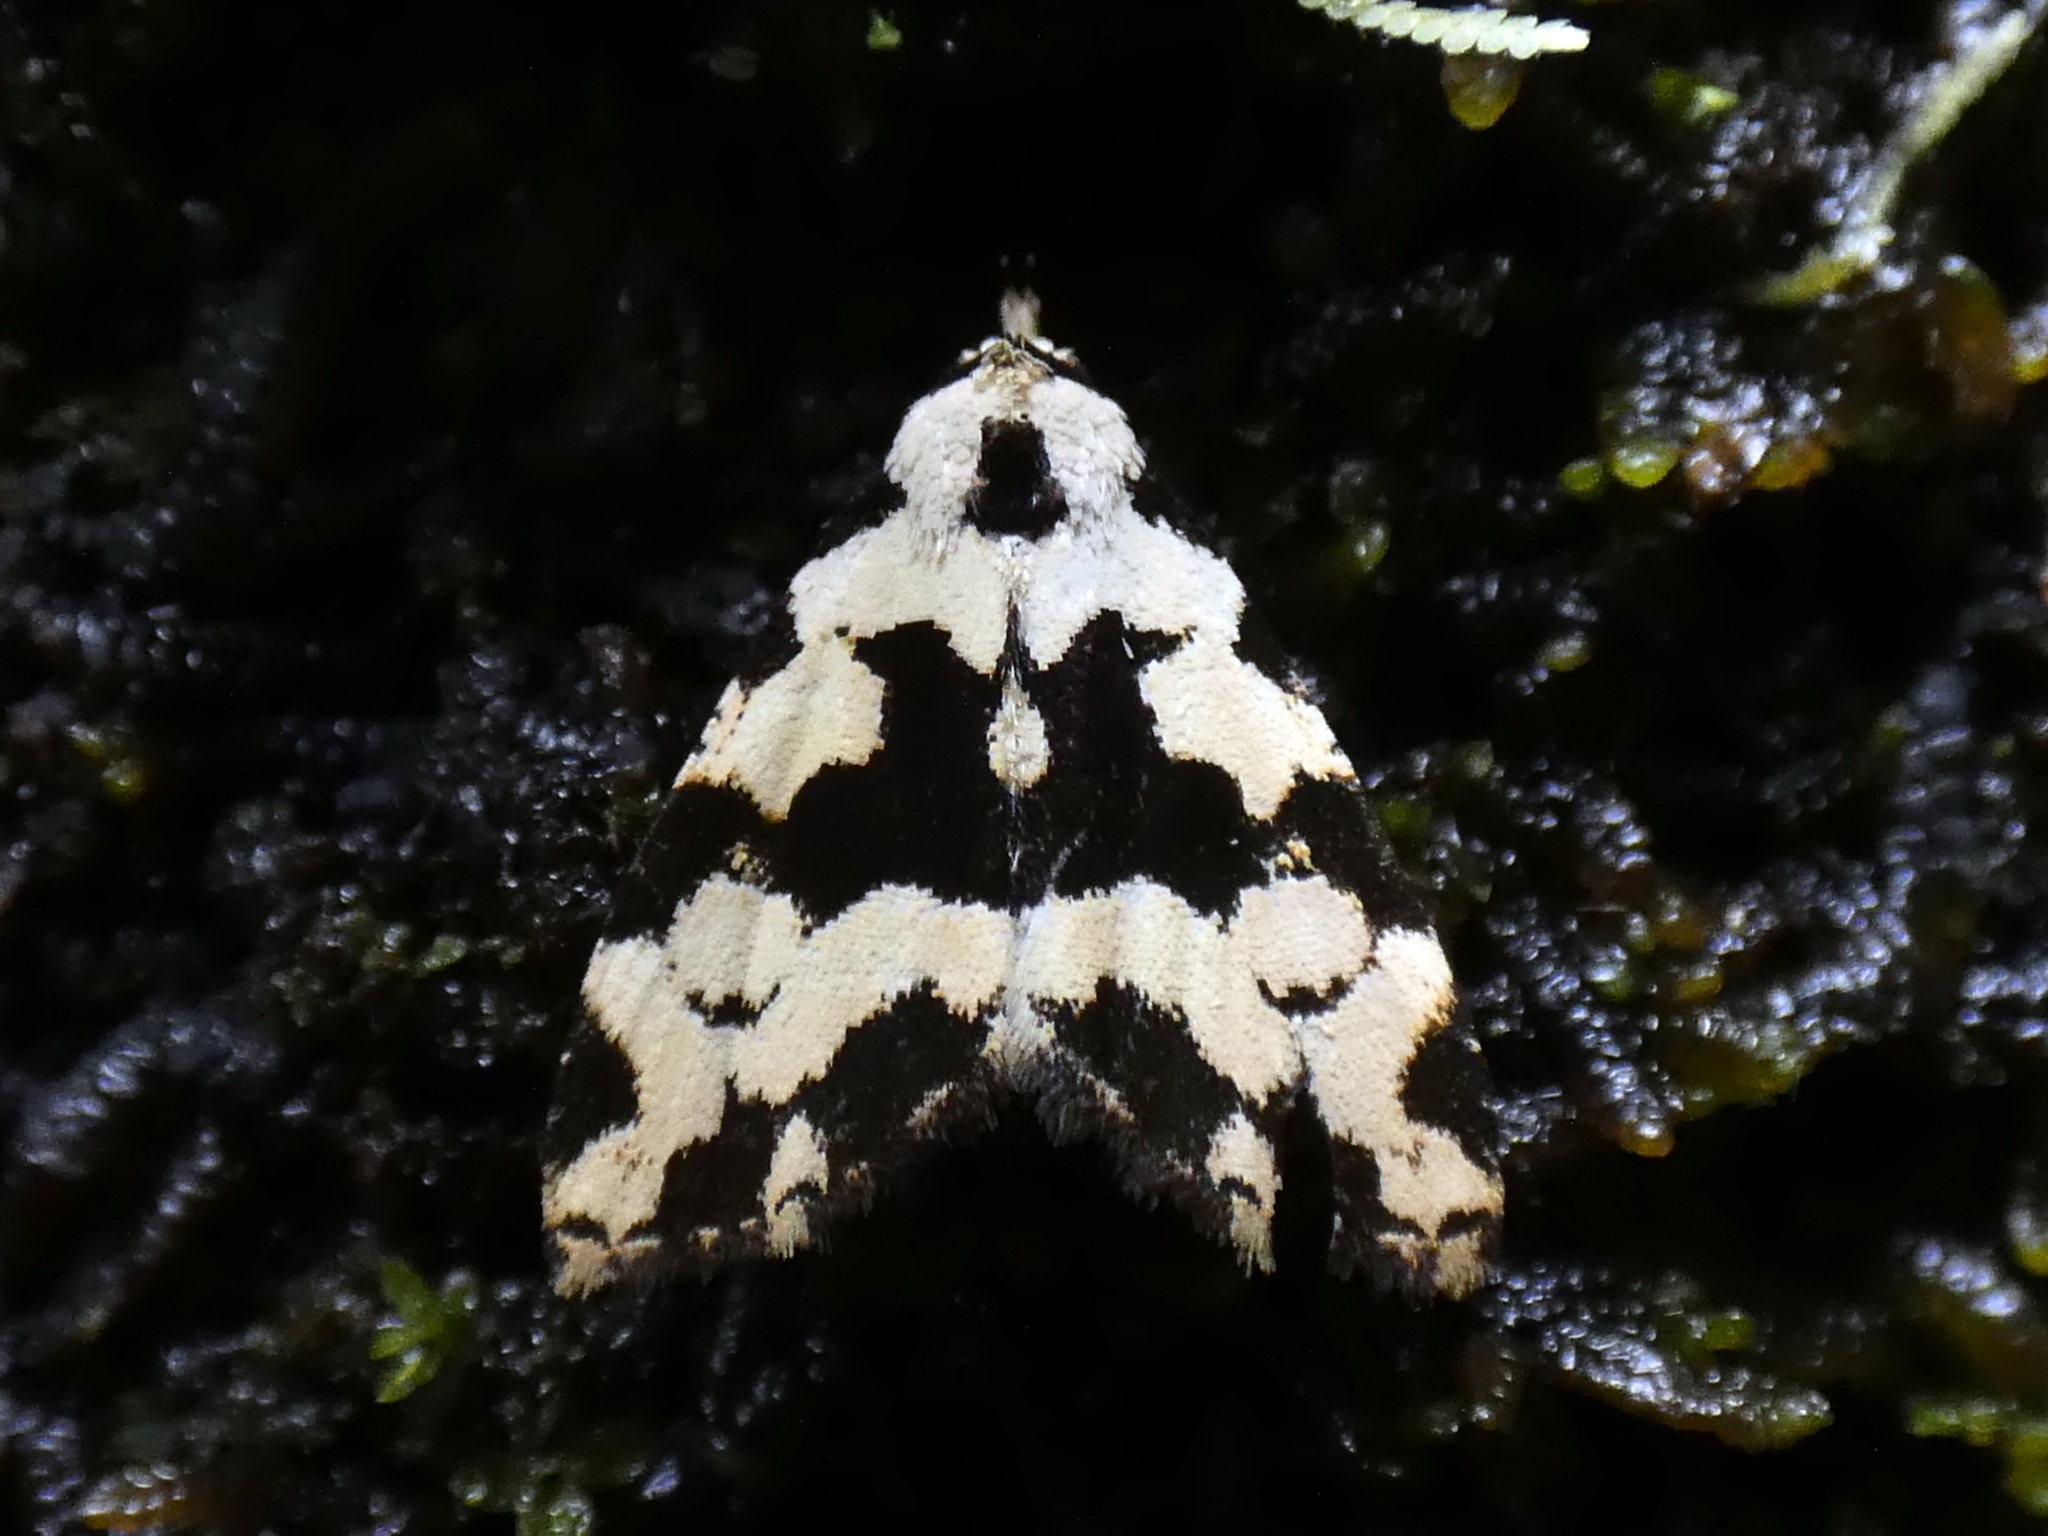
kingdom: Animalia
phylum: Arthropoda
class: Insecta
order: Lepidoptera
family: Erebidae
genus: Chusaris
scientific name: Chusaris
